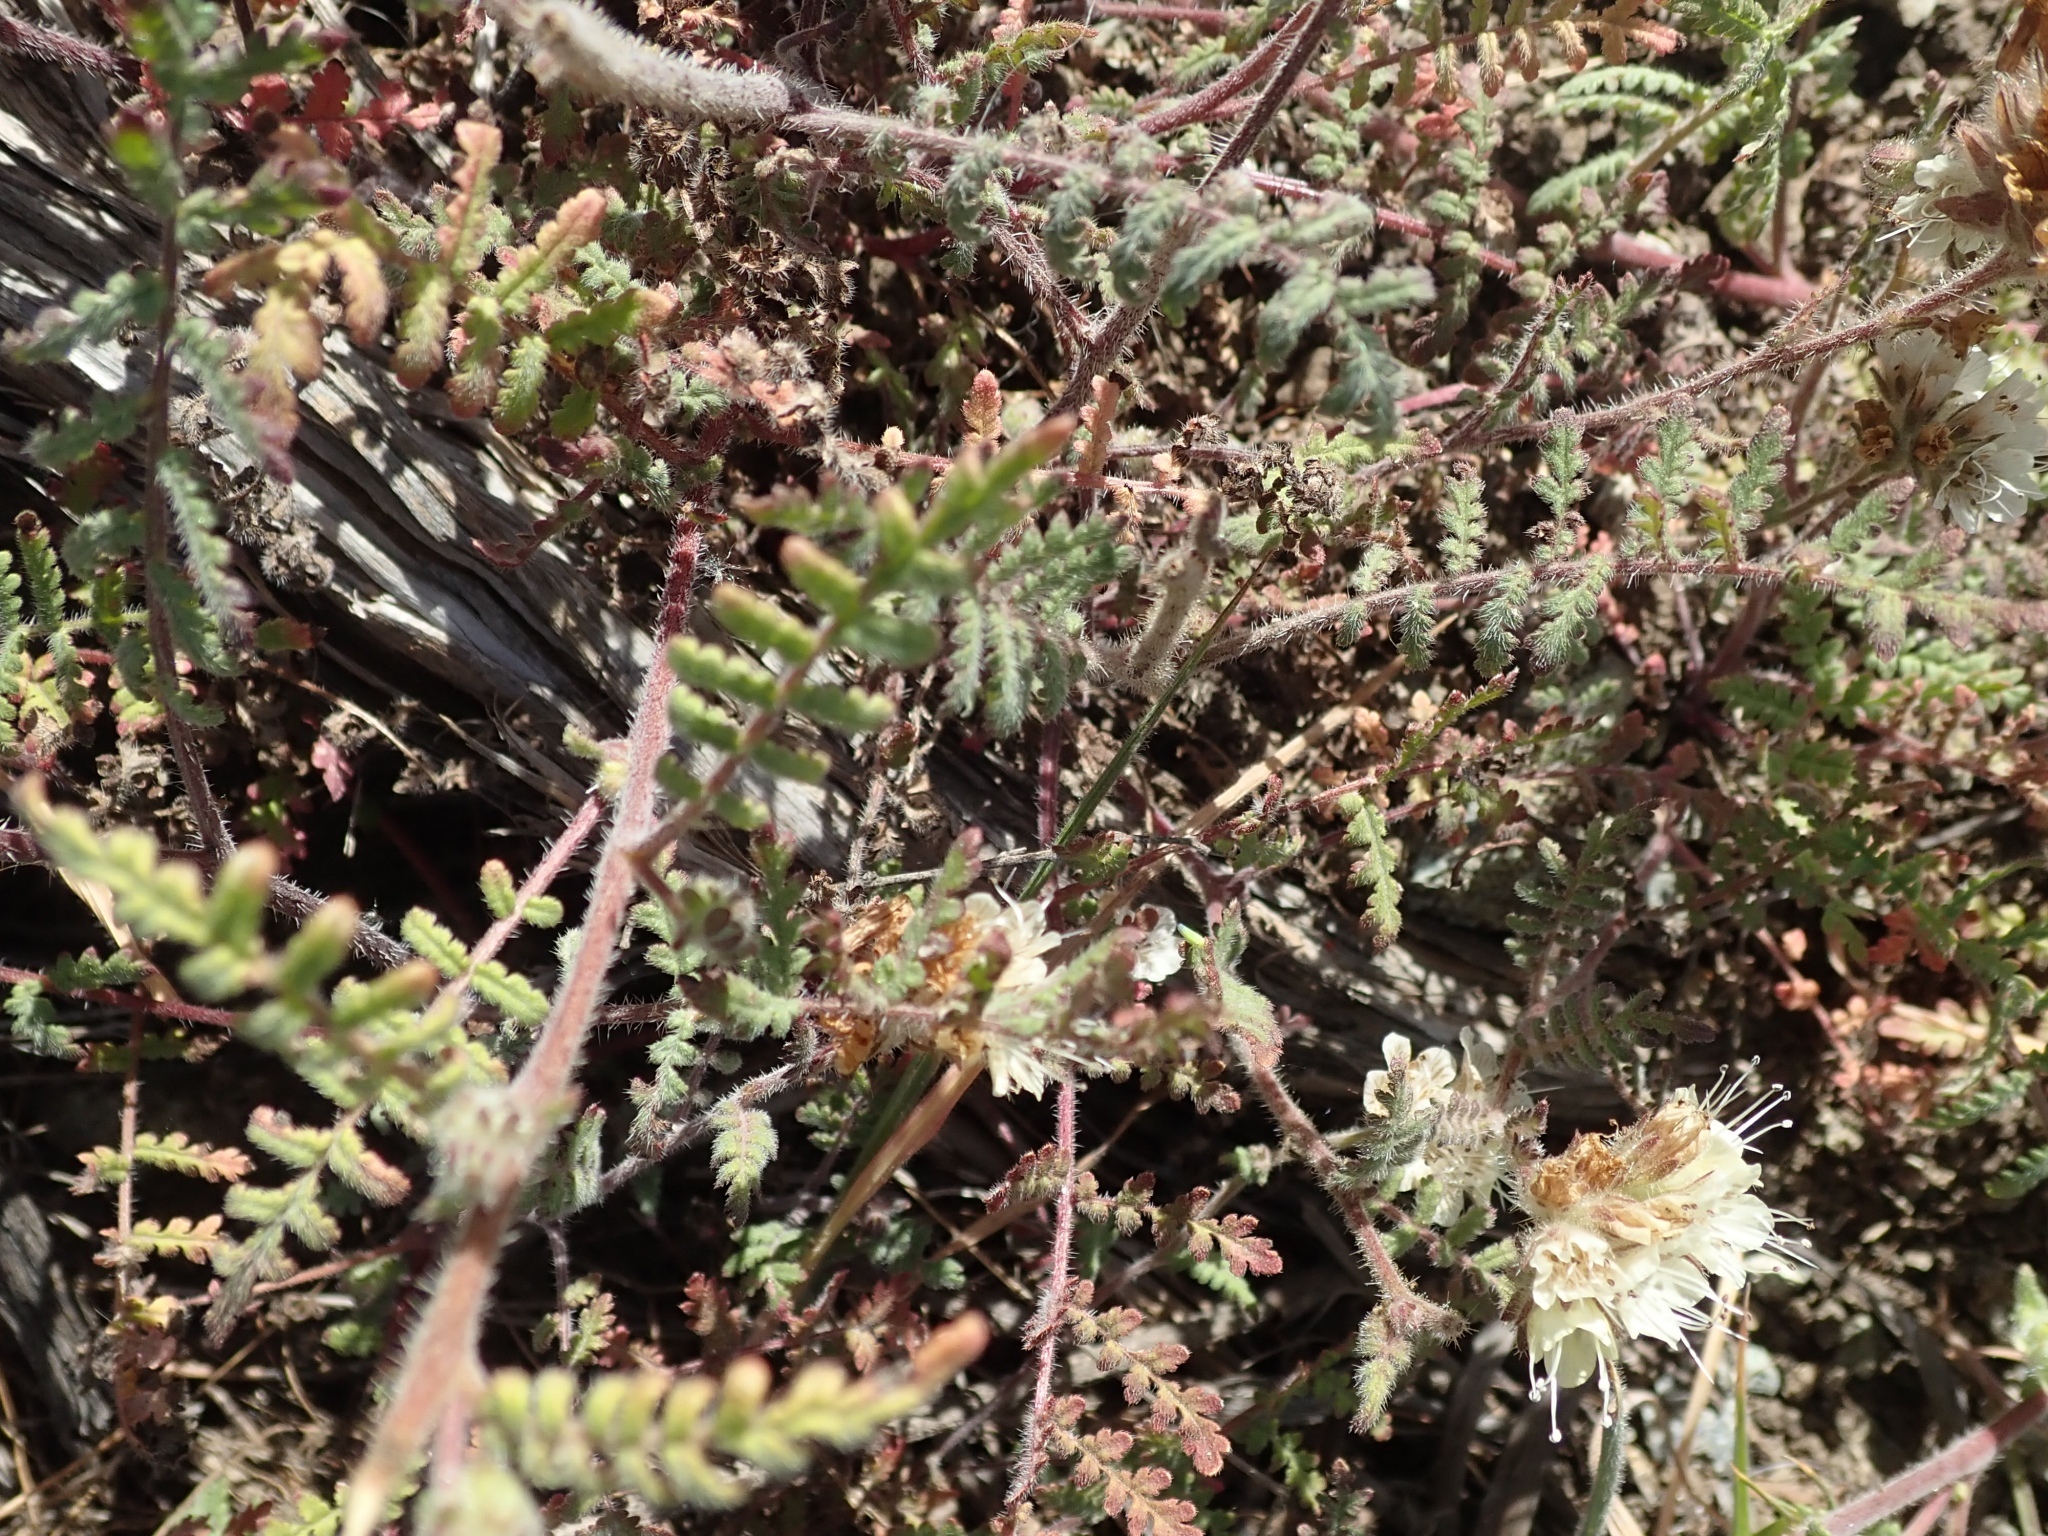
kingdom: Plantae
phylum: Tracheophyta
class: Magnoliopsida
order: Boraginales
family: Hydrophyllaceae
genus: Phacelia
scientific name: Phacelia distans
